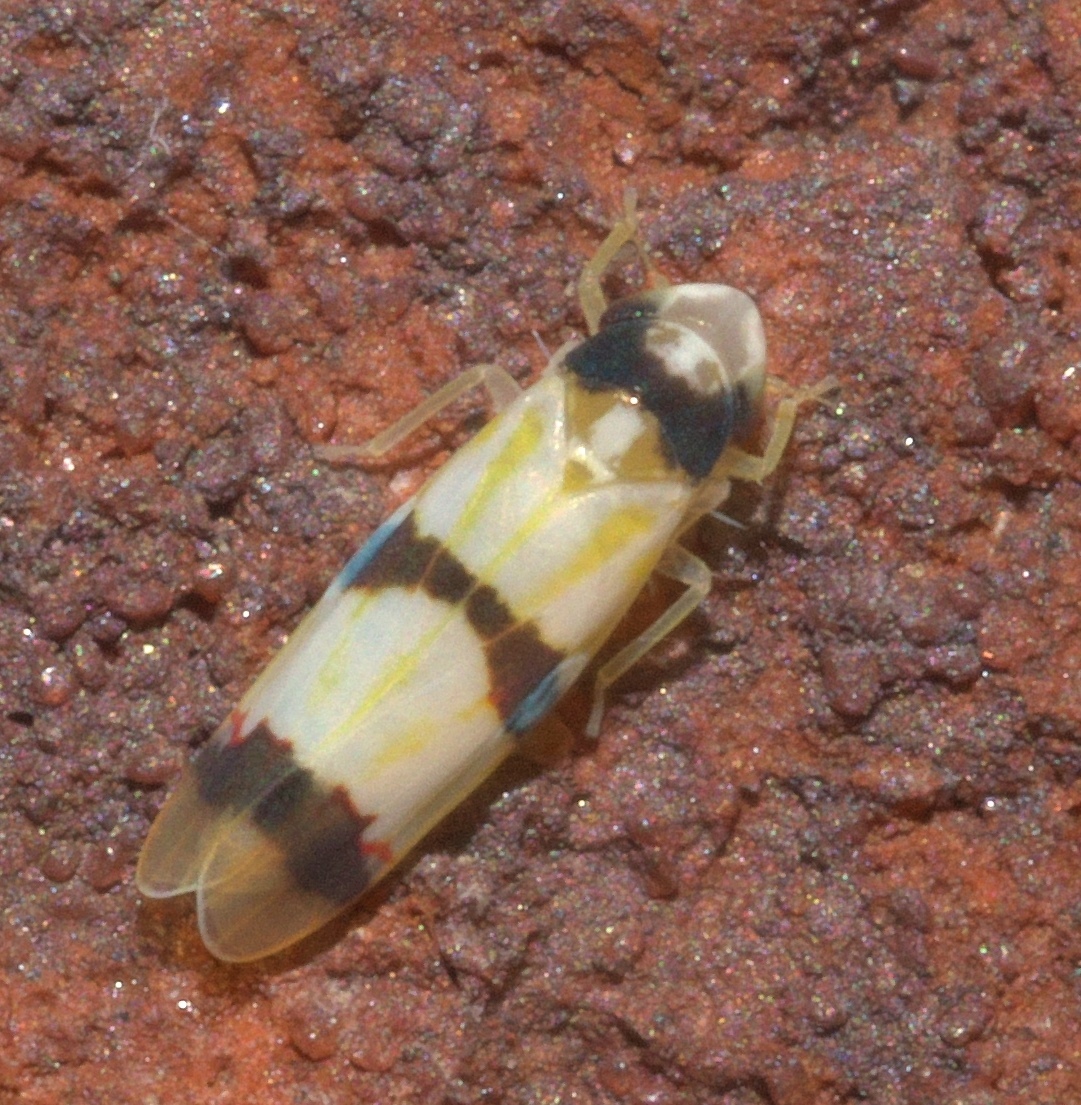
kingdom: Animalia
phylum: Arthropoda
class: Insecta
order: Hemiptera
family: Cicadellidae
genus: Erythroneura
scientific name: Erythroneura cymbium
